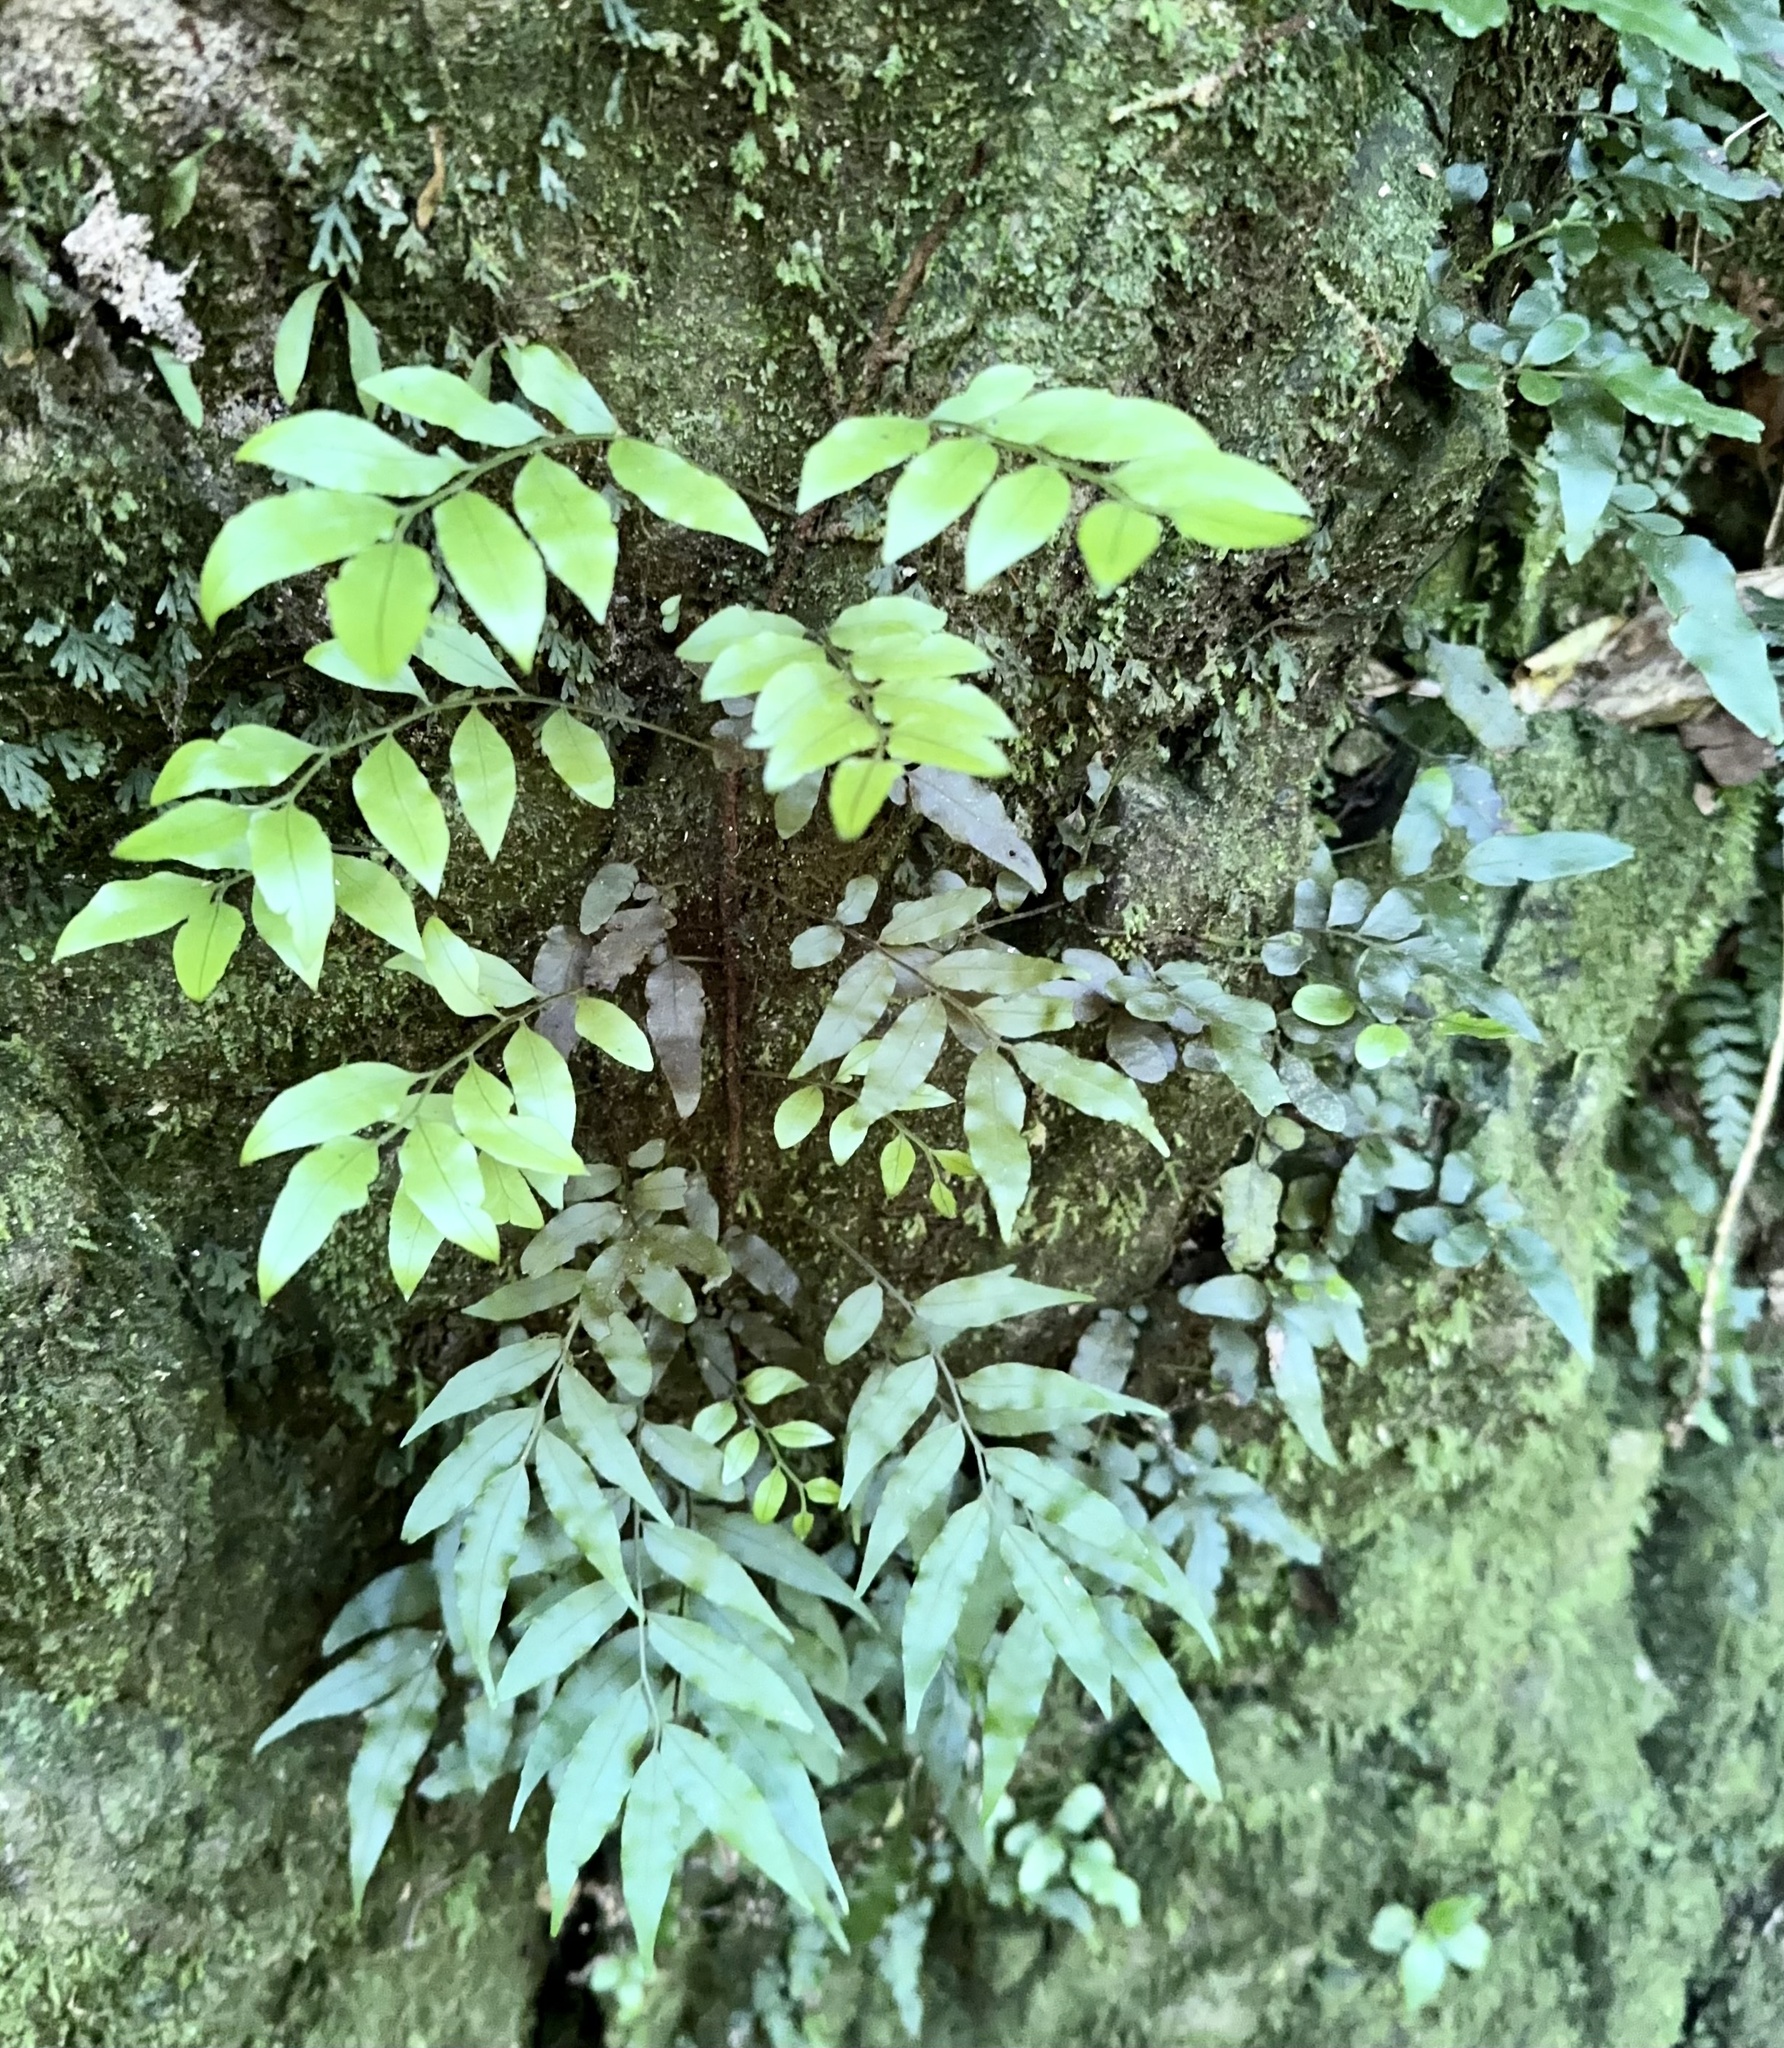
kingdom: Plantae
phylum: Tracheophyta
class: Polypodiopsida
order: Polypodiales
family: Tectariaceae
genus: Arthropteris
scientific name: Arthropteris tenella
